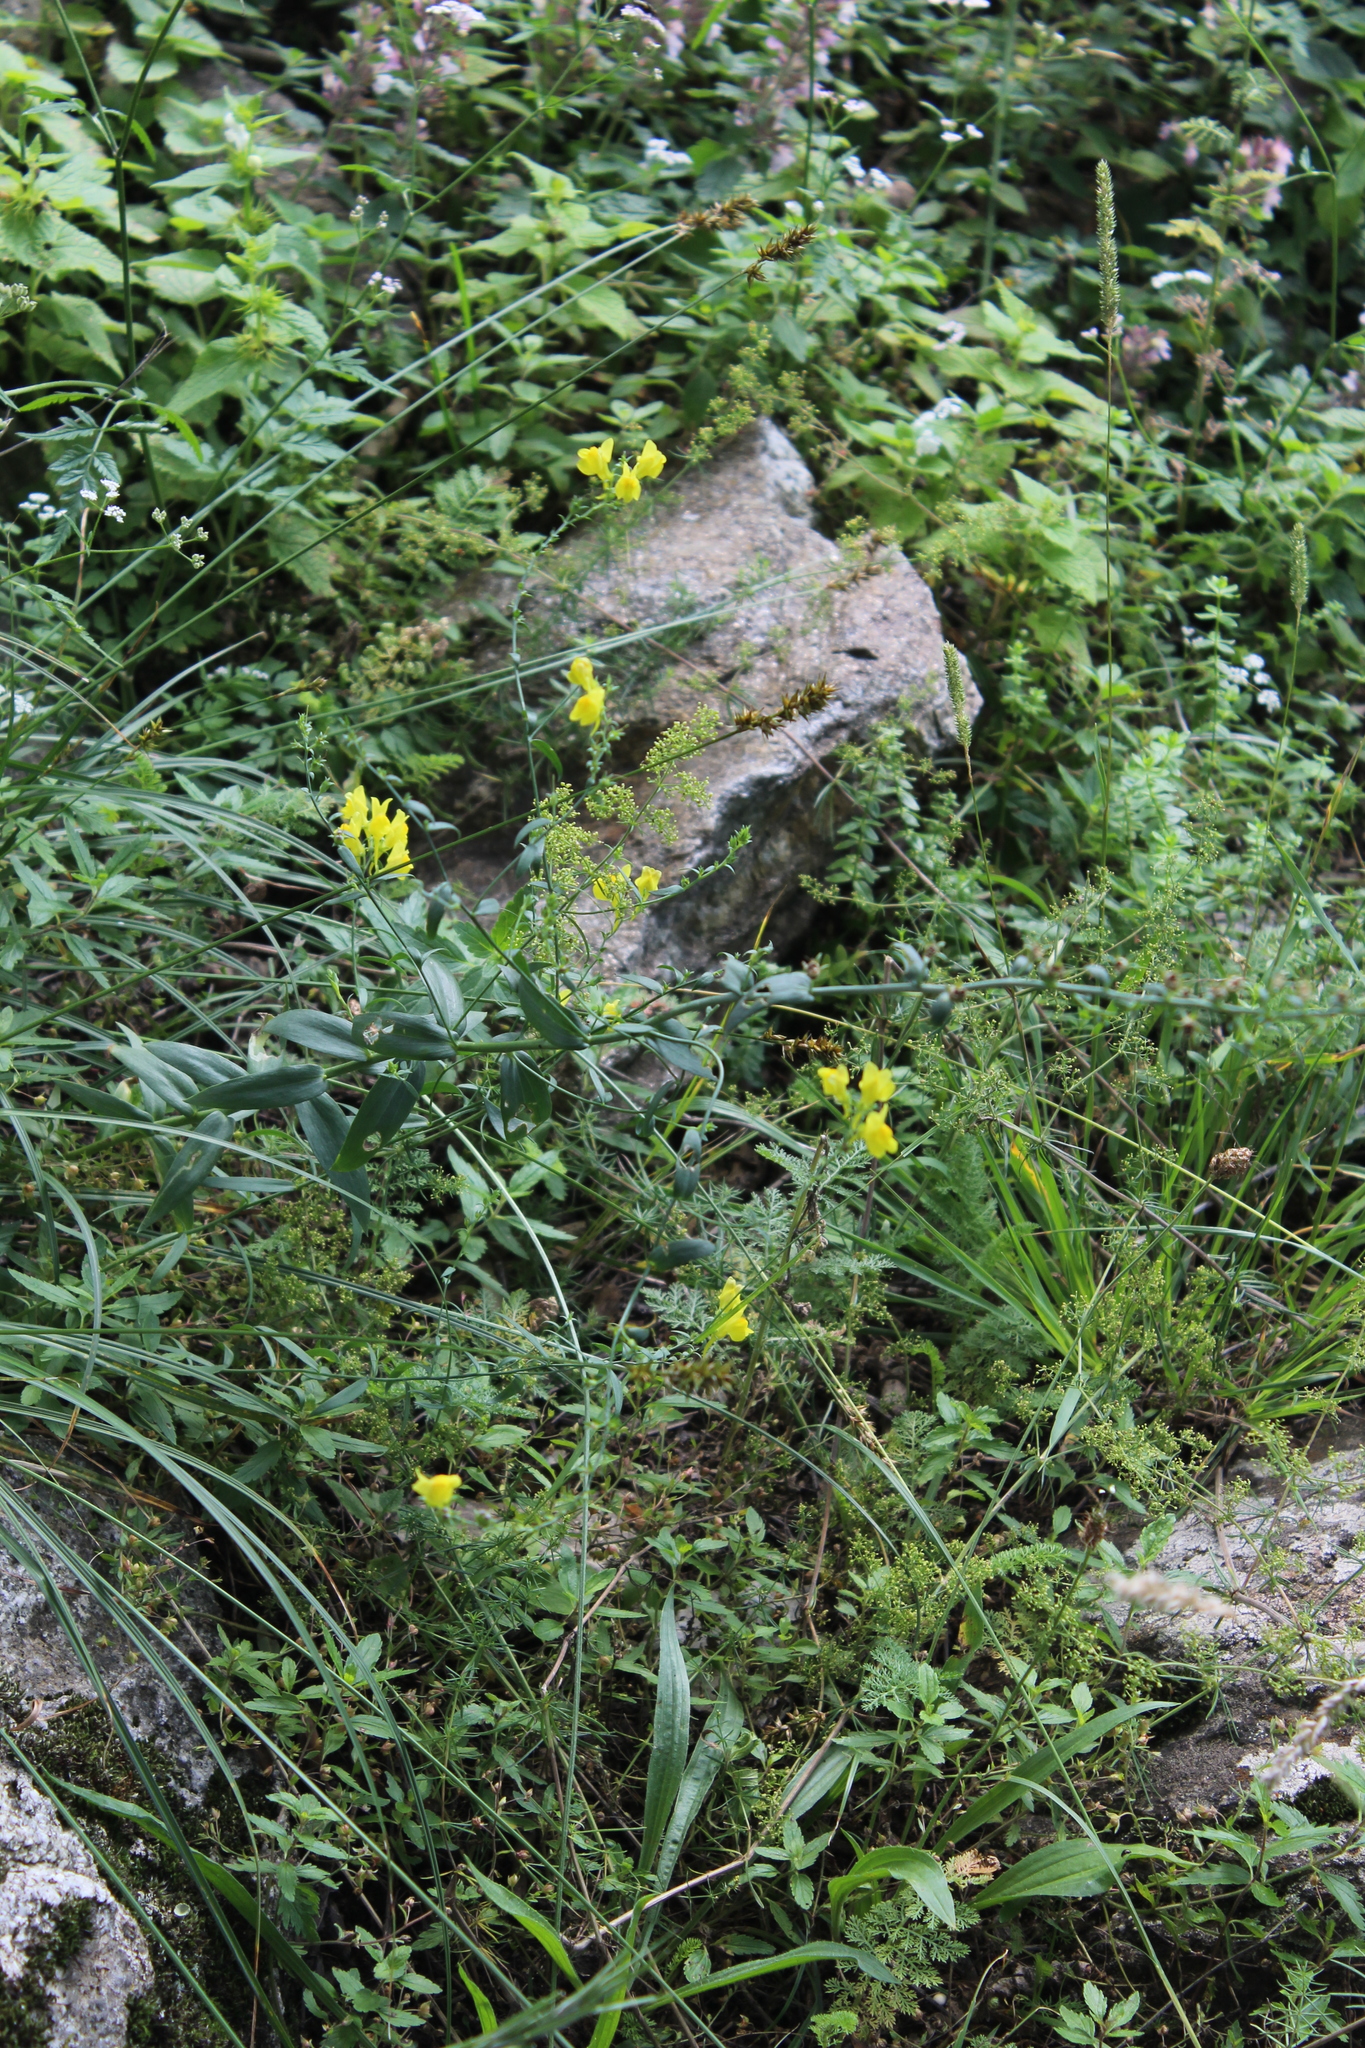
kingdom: Plantae
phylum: Tracheophyta
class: Magnoliopsida
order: Lamiales
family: Plantaginaceae
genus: Linaria
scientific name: Linaria genistifolia
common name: Broomleaf toadflax
